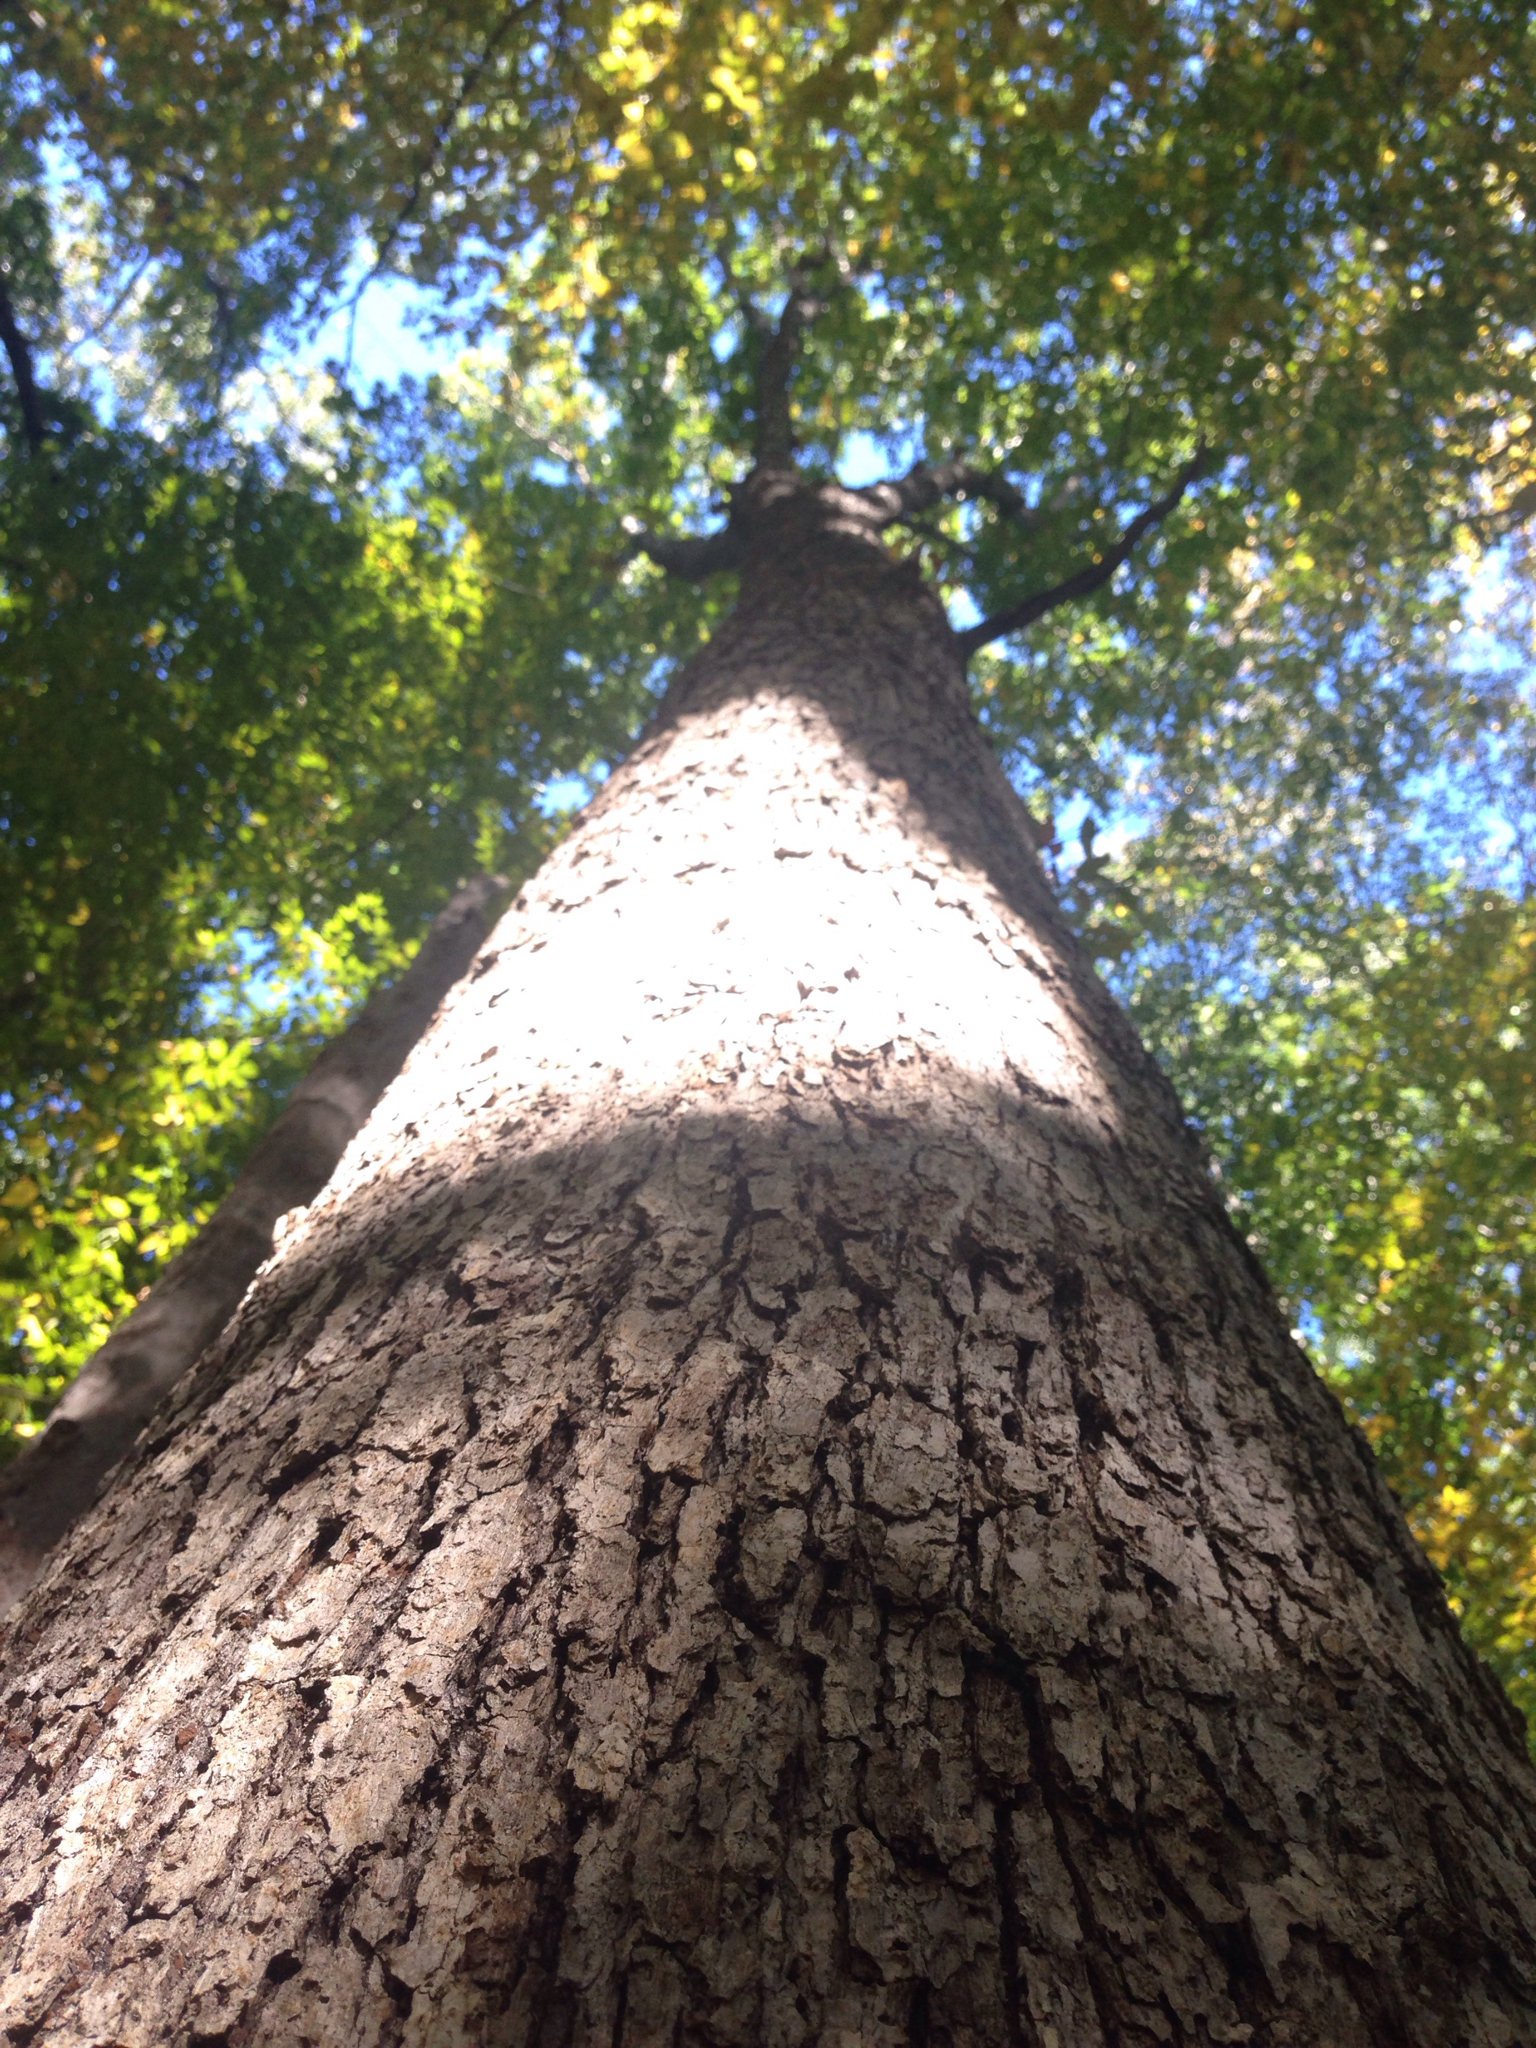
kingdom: Plantae
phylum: Tracheophyta
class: Magnoliopsida
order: Fagales
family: Fagaceae
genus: Quercus
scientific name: Quercus alba
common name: White oak
